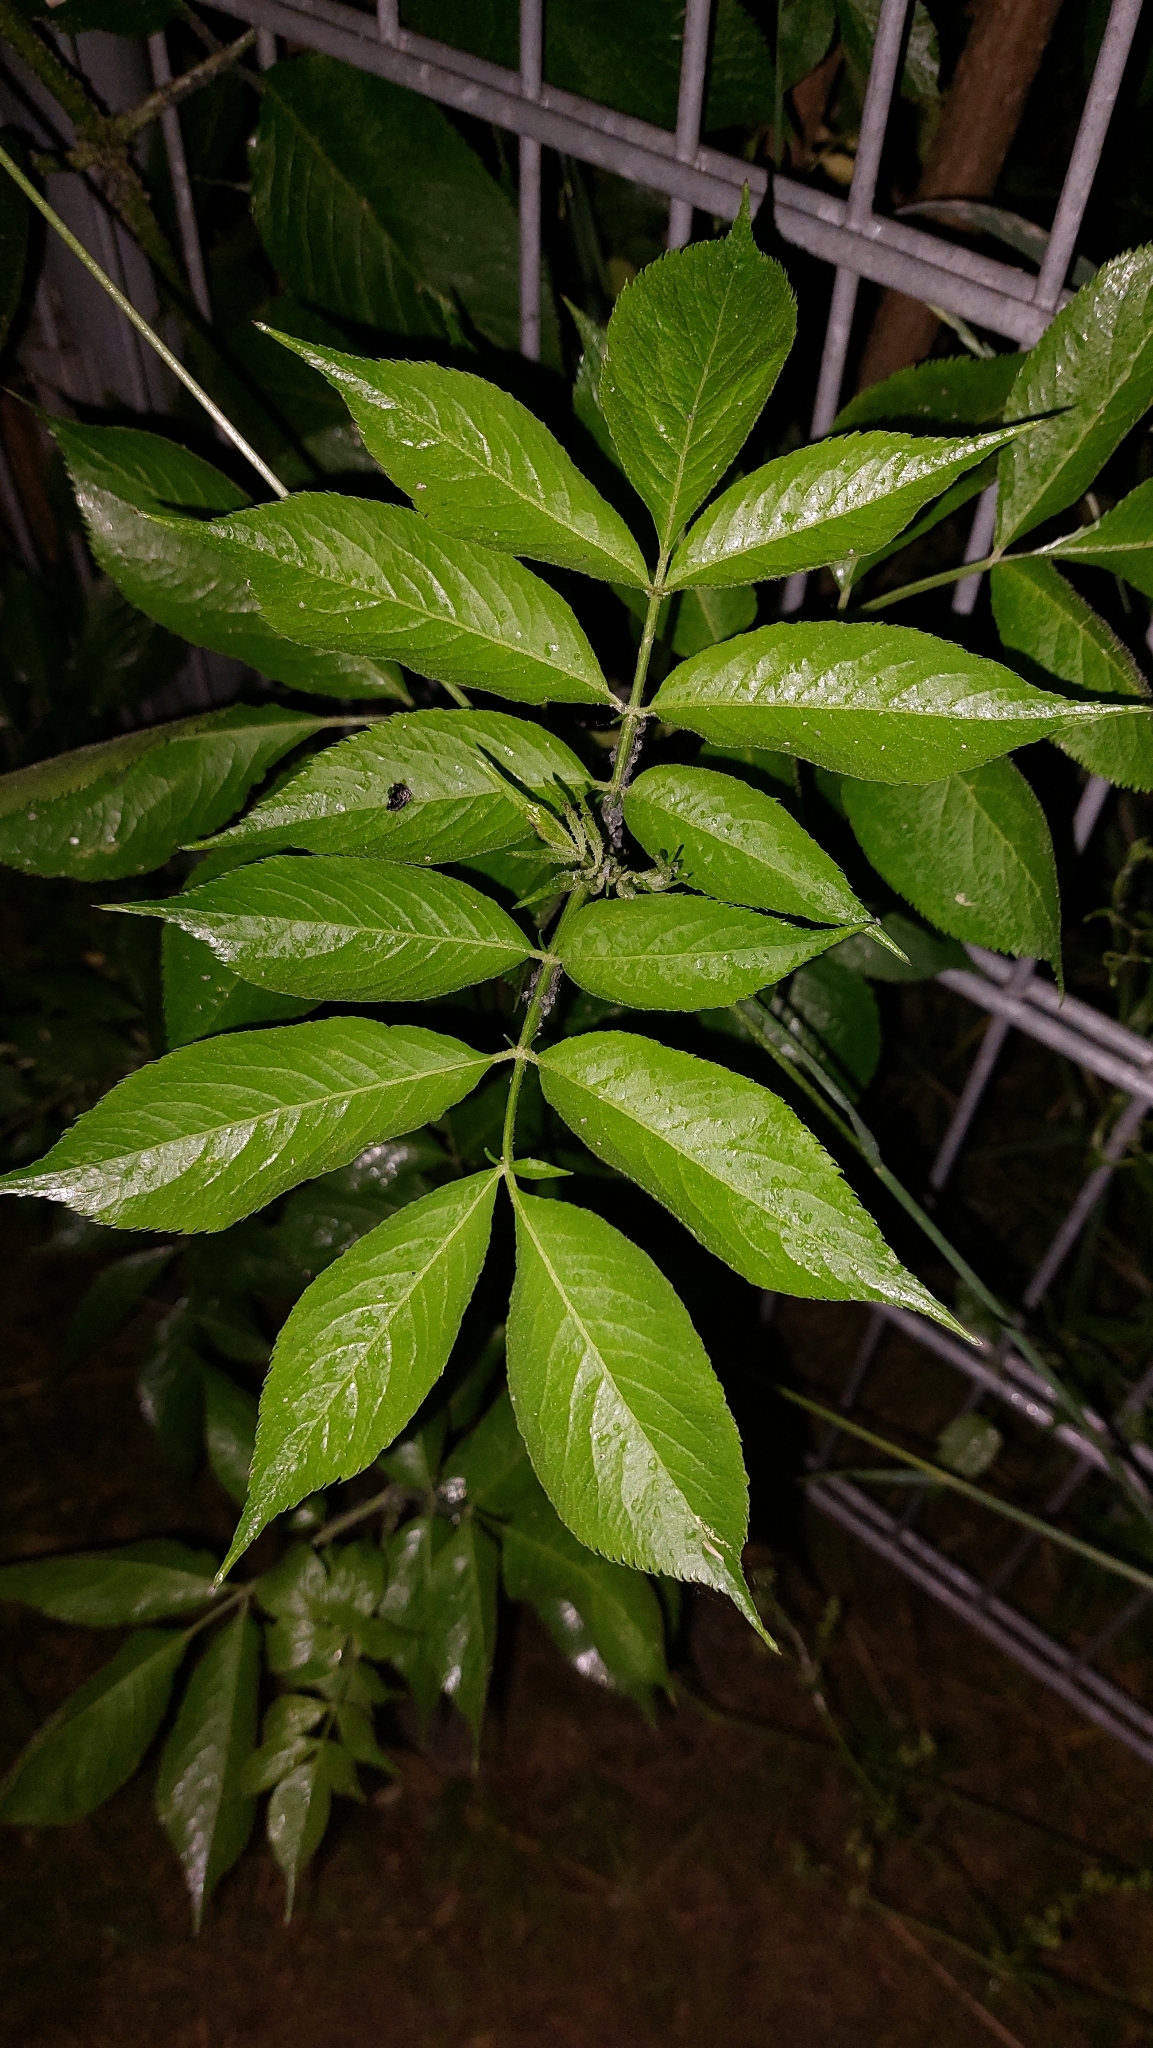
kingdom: Plantae
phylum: Tracheophyta
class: Magnoliopsida
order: Dipsacales
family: Viburnaceae
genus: Sambucus
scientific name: Sambucus nigra
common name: Elder
